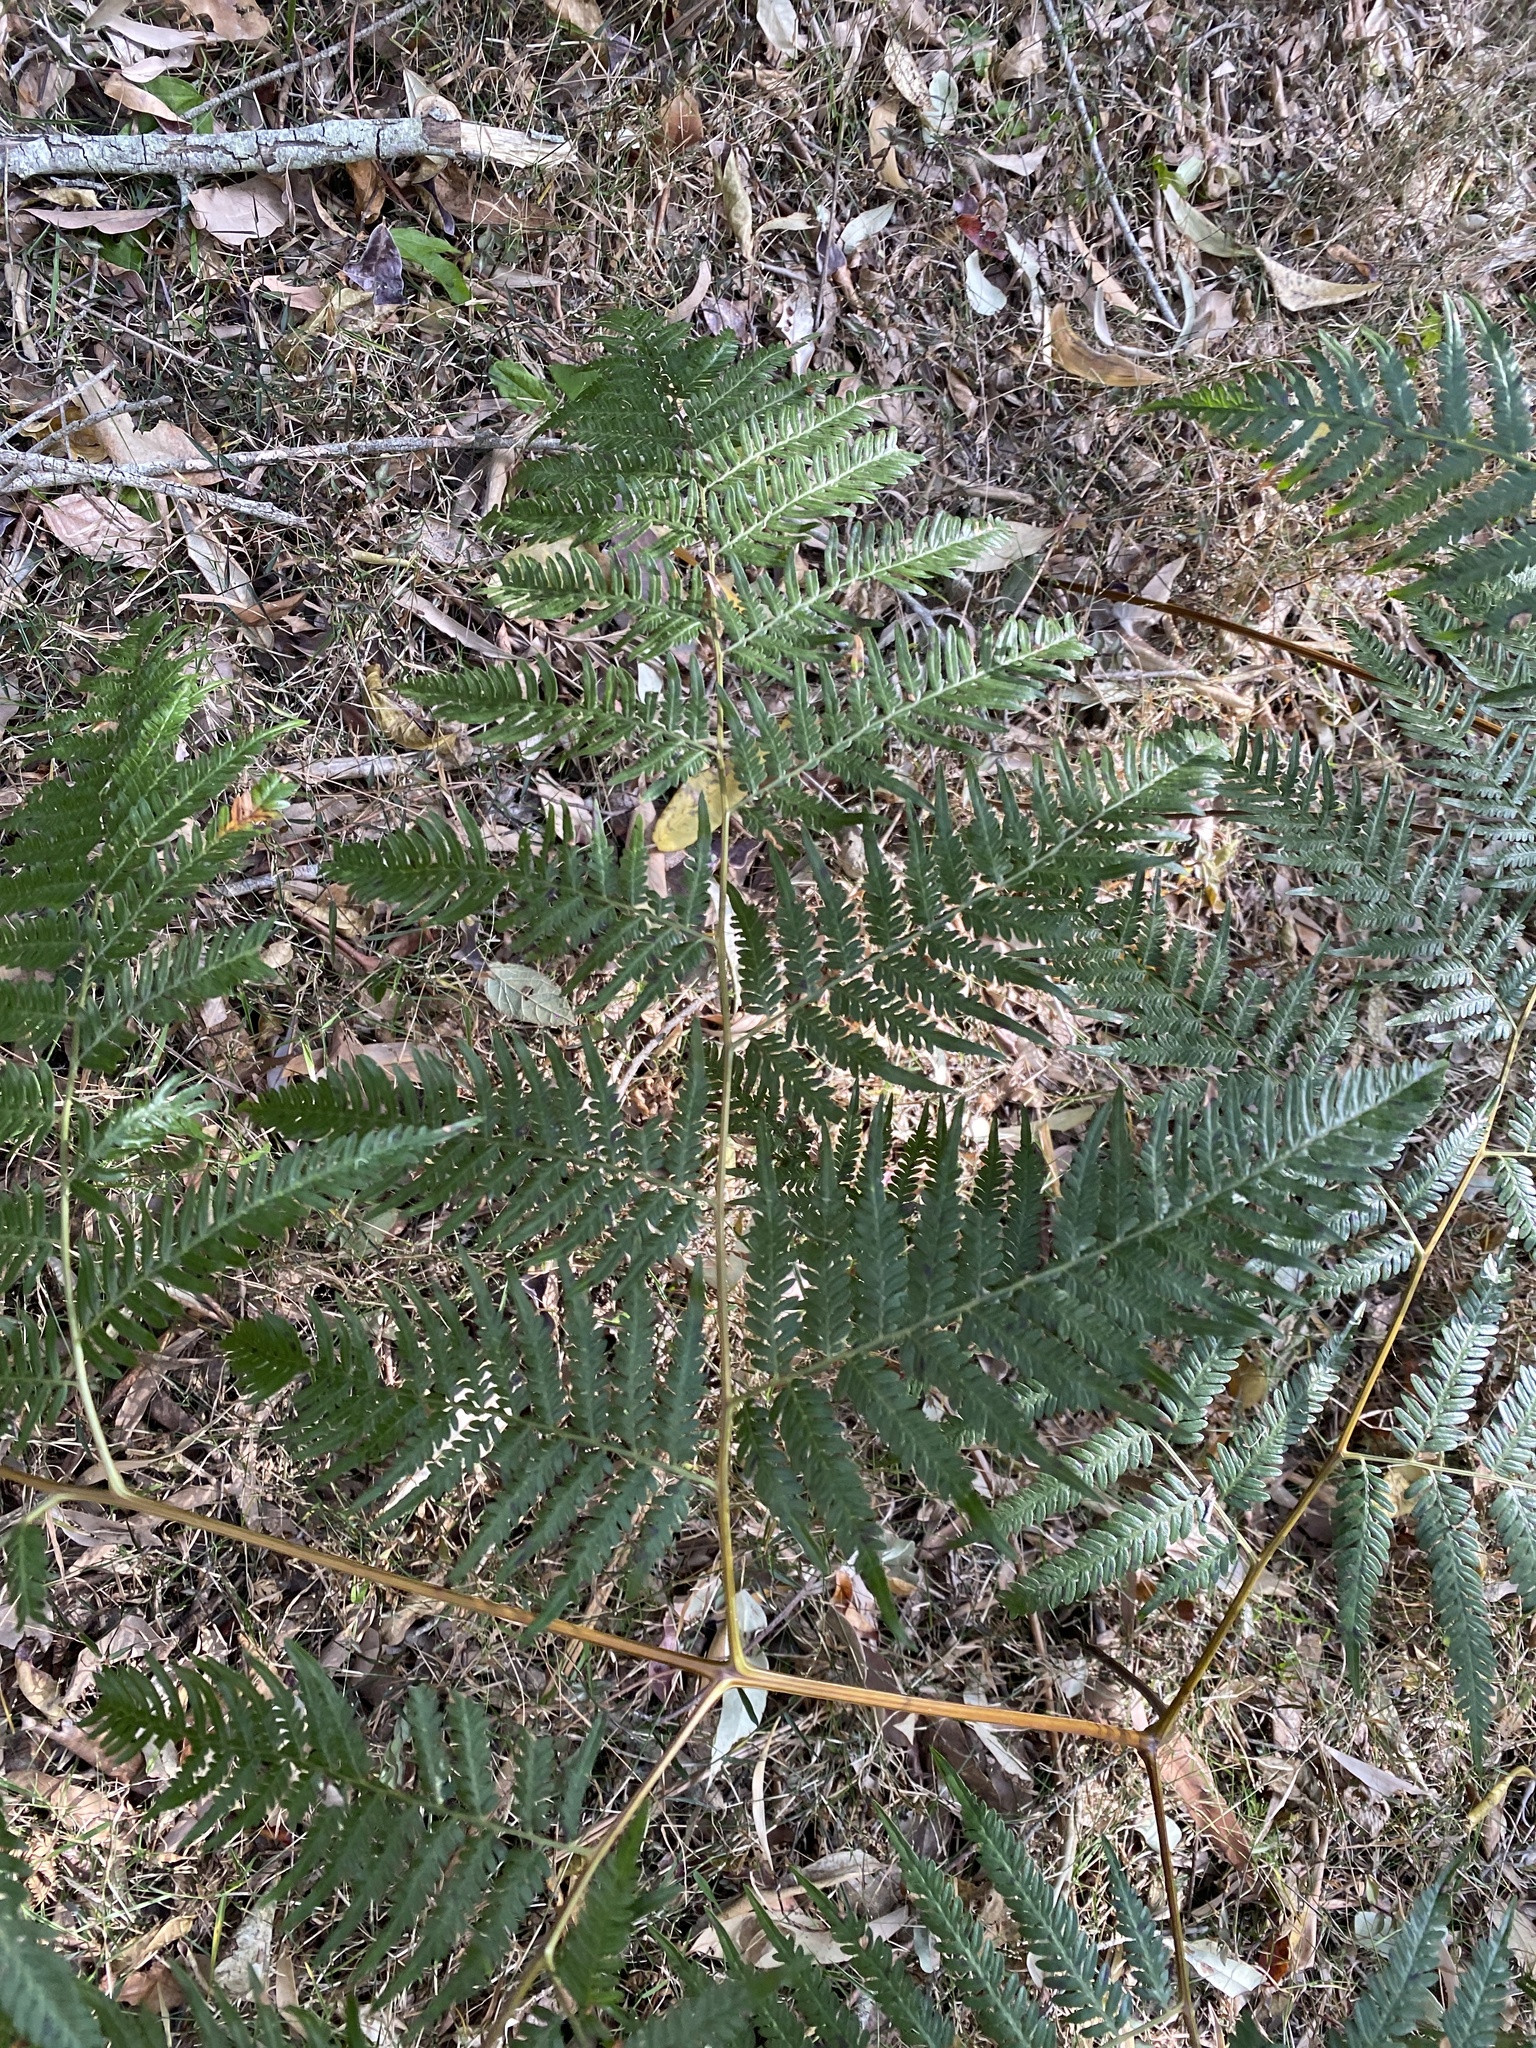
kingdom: Plantae
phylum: Tracheophyta
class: Polypodiopsida
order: Polypodiales
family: Dennstaedtiaceae
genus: Pteridium
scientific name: Pteridium esculentum
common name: Bracken fern
